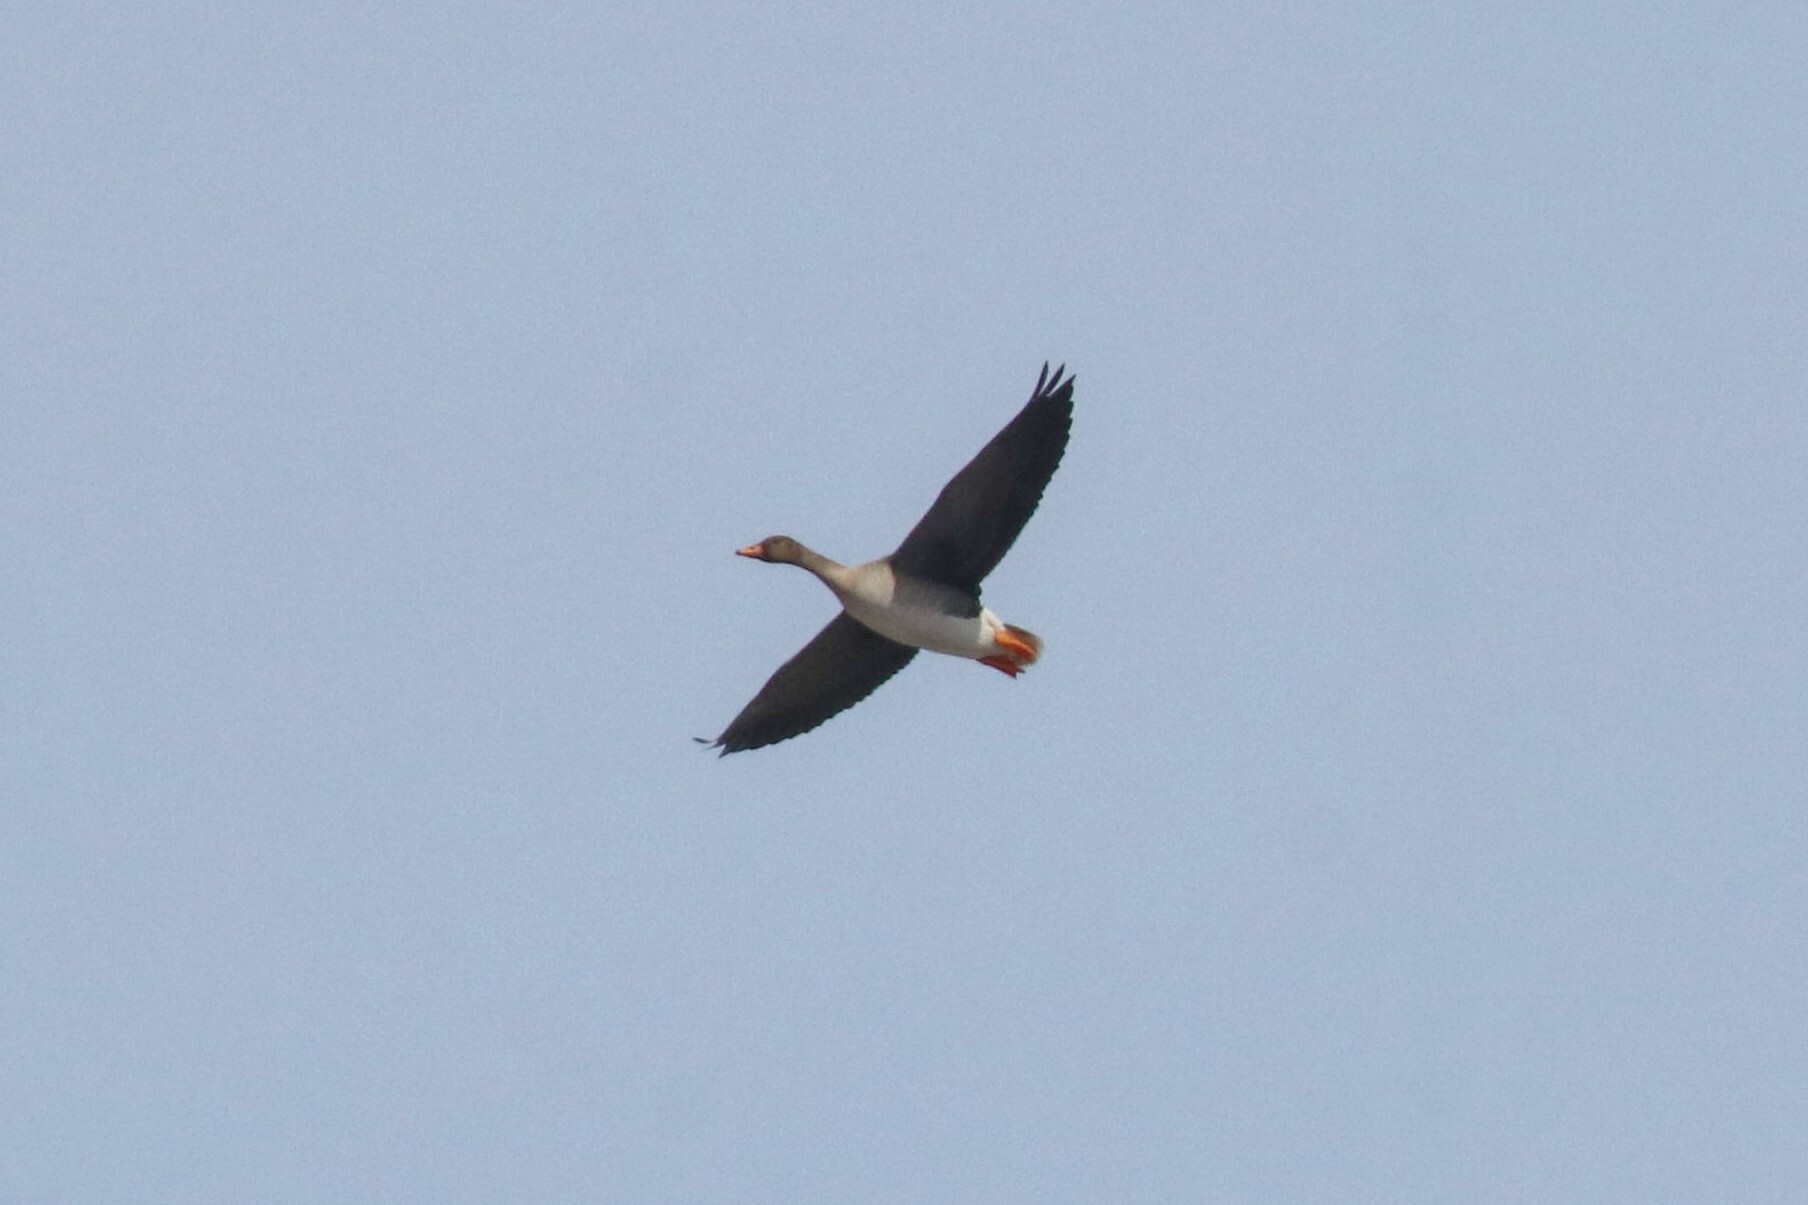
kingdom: Animalia
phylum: Chordata
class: Aves
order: Anseriformes
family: Anatidae
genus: Anser
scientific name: Anser fabalis
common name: Bean goose
